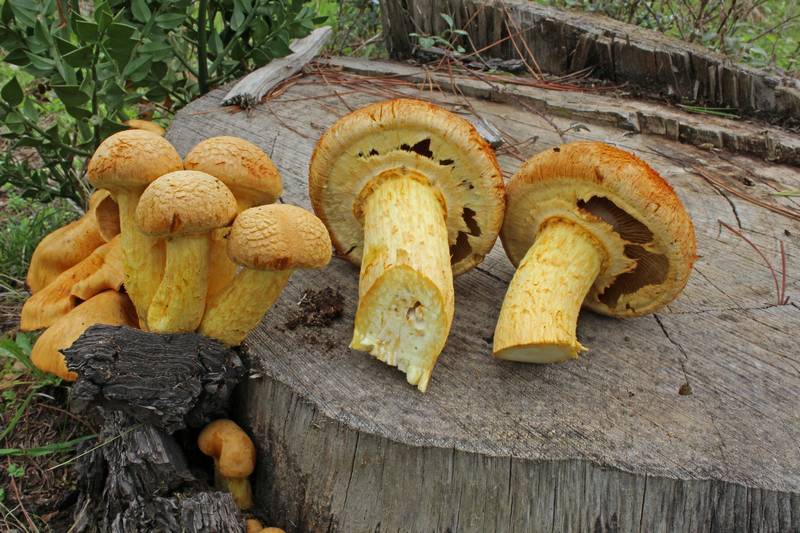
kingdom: Fungi
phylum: Basidiomycota
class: Agaricomycetes
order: Agaricales
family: Hymenogastraceae
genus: Gymnopilus
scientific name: Gymnopilus junonius
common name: Spectacular rustgill
